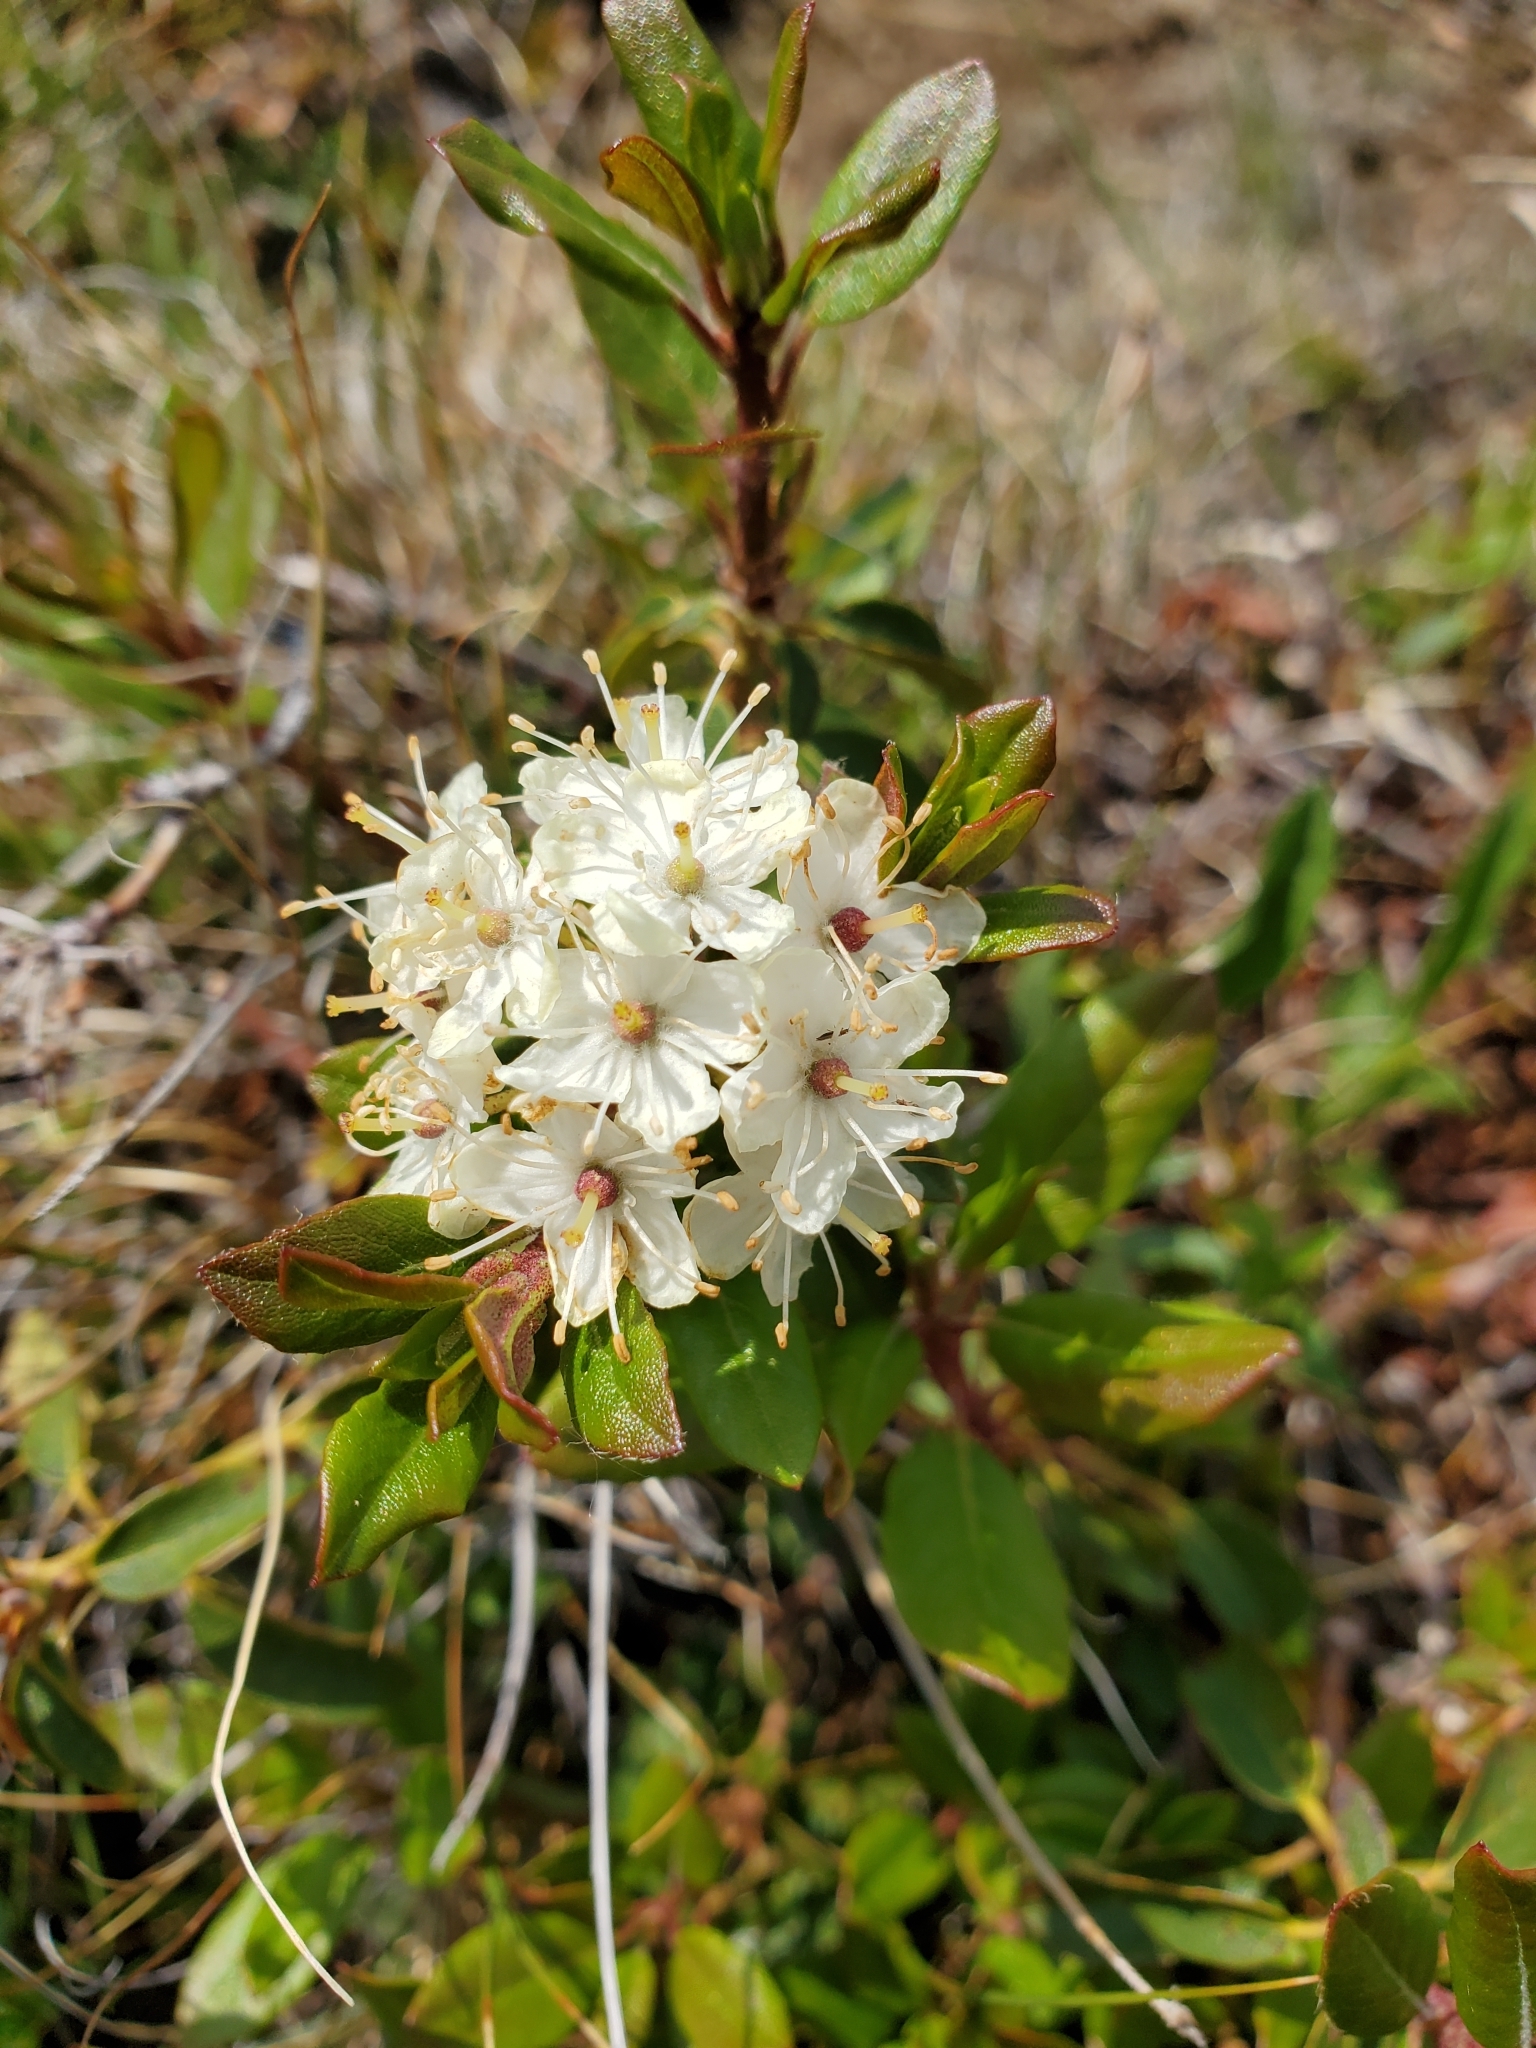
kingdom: Plantae
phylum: Tracheophyta
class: Magnoliopsida
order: Ericales
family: Ericaceae
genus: Rhododendron
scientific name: Rhododendron columbianum
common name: Western labrador tea
